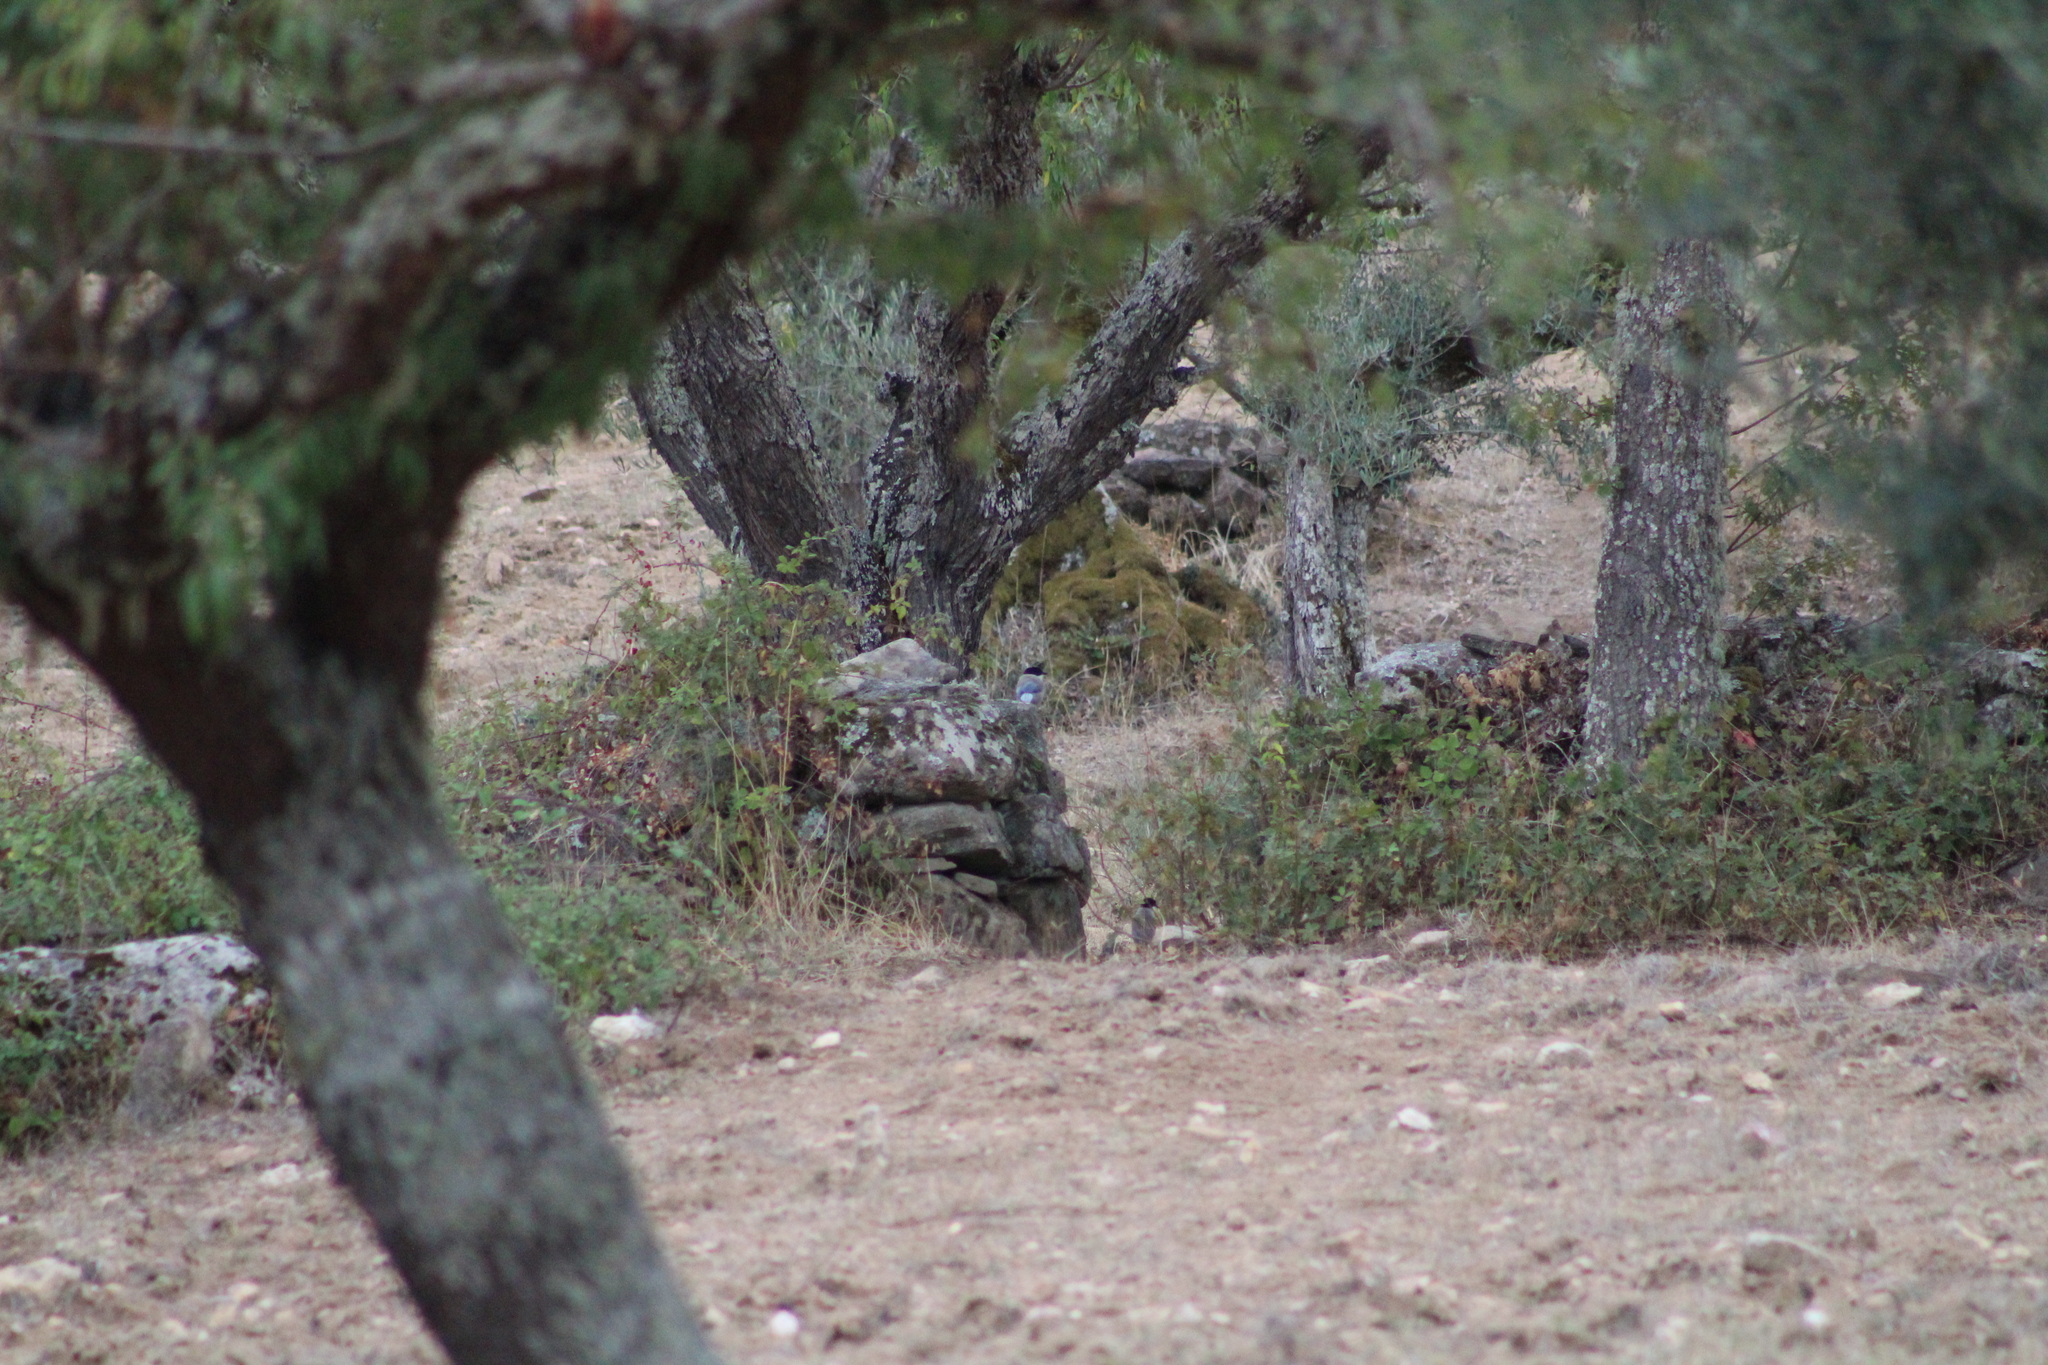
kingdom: Animalia
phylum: Chordata
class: Aves
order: Passeriformes
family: Corvidae
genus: Cyanopica
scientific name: Cyanopica cooki
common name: Iberian magpie
